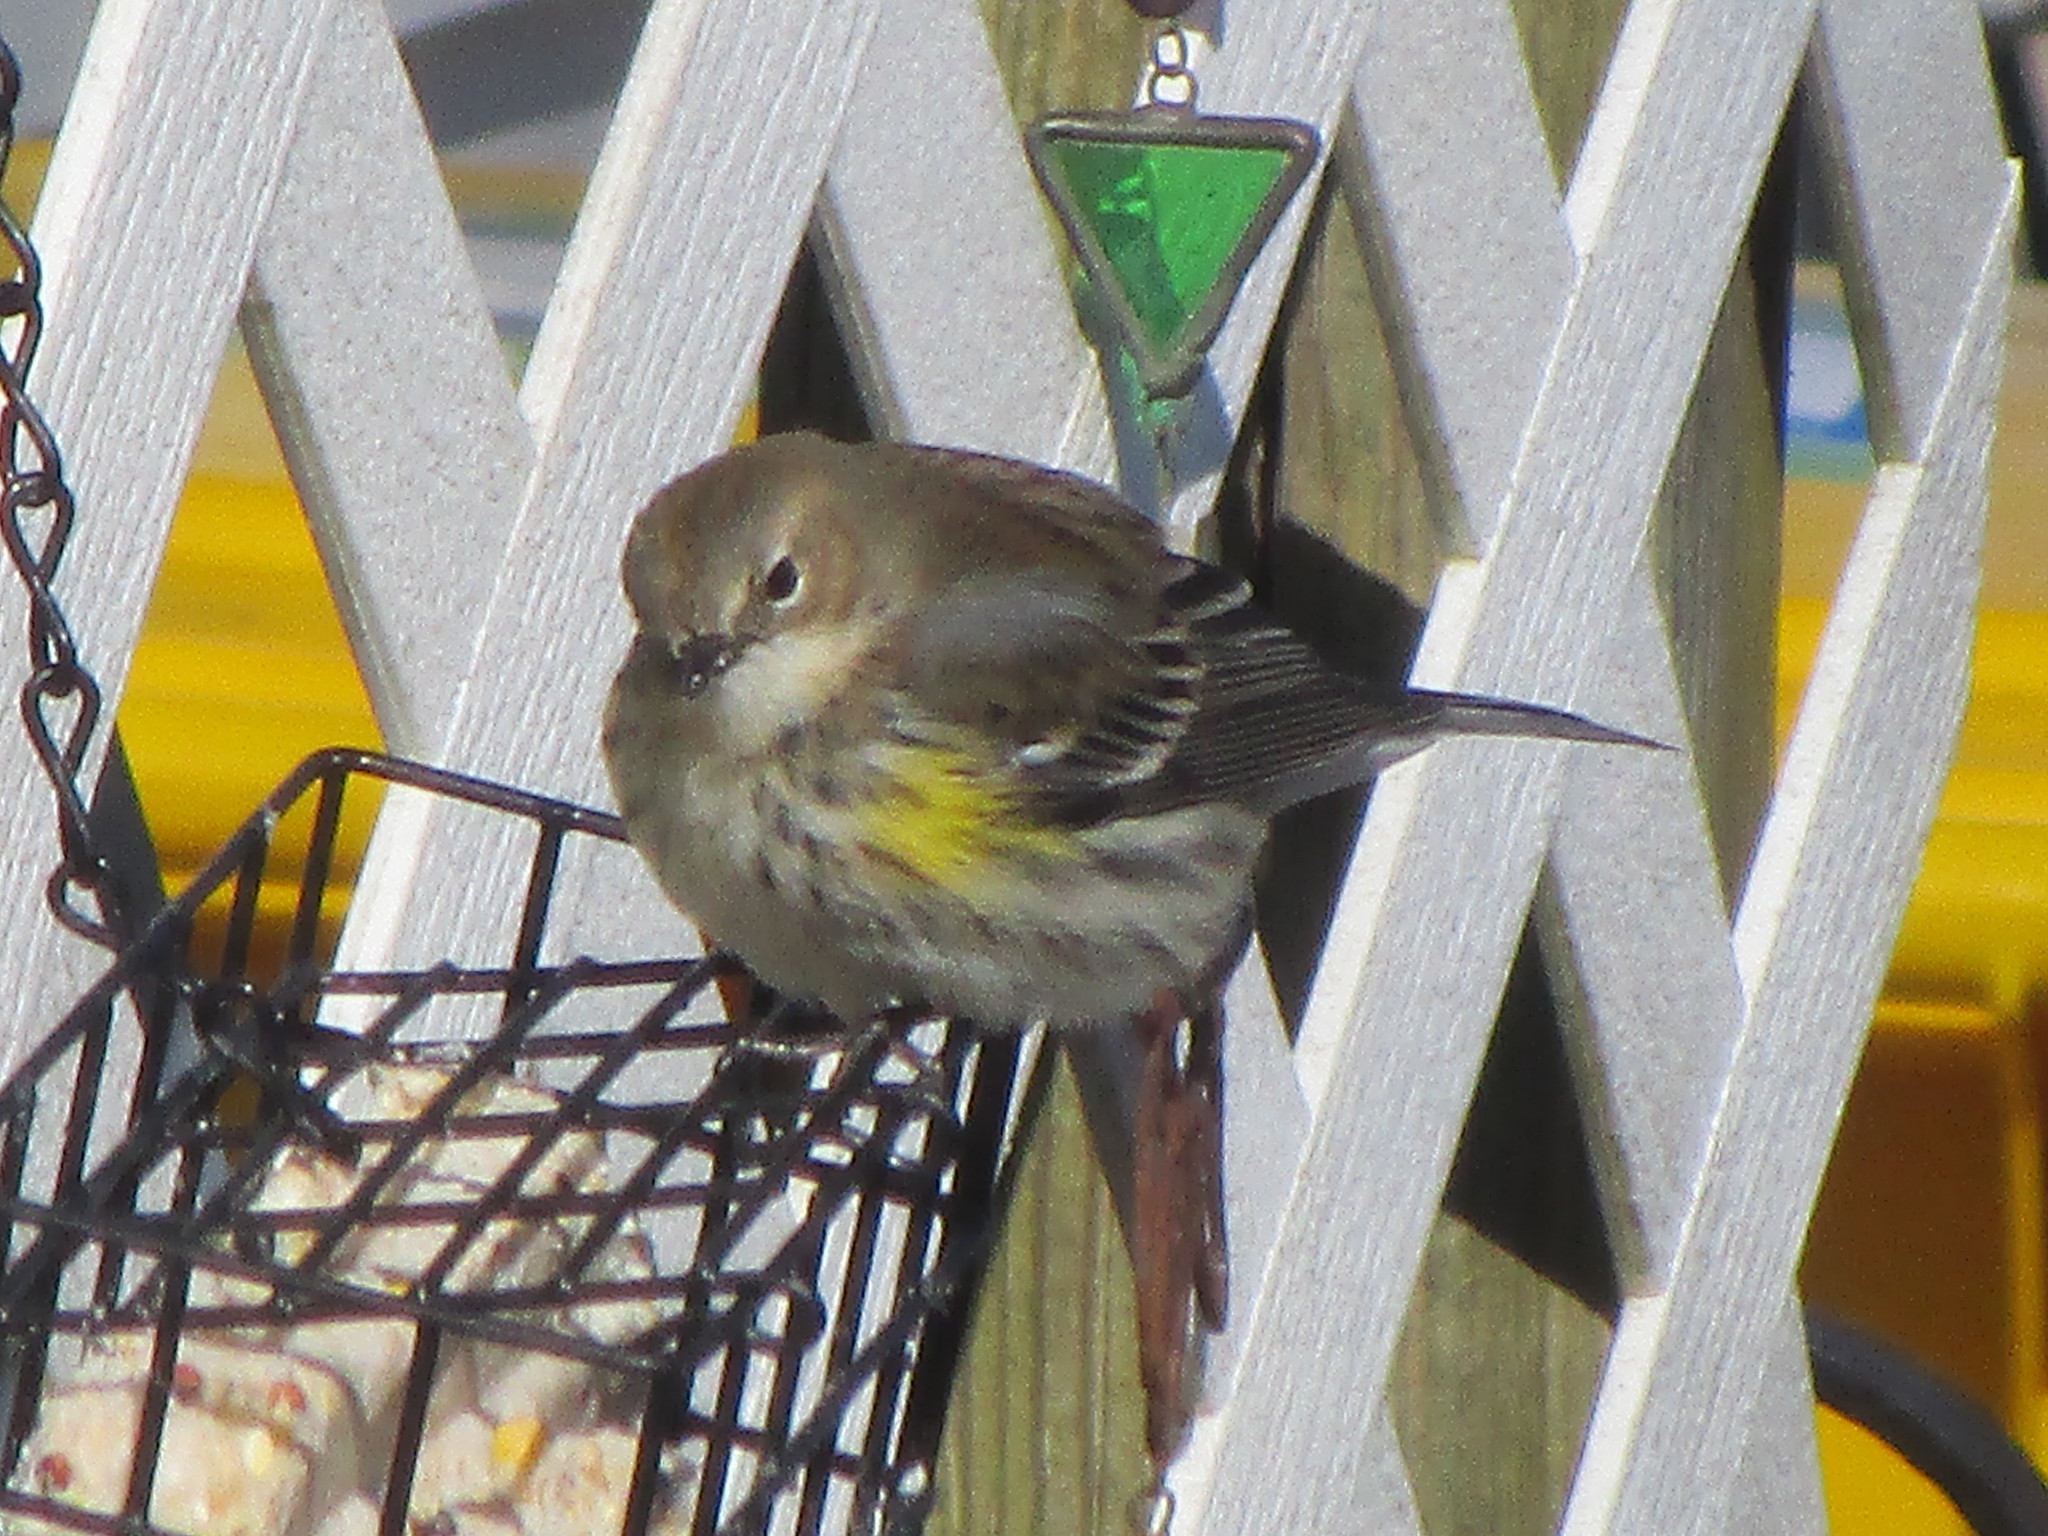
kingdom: Animalia
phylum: Chordata
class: Aves
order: Passeriformes
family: Parulidae
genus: Setophaga
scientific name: Setophaga coronata
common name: Myrtle warbler
